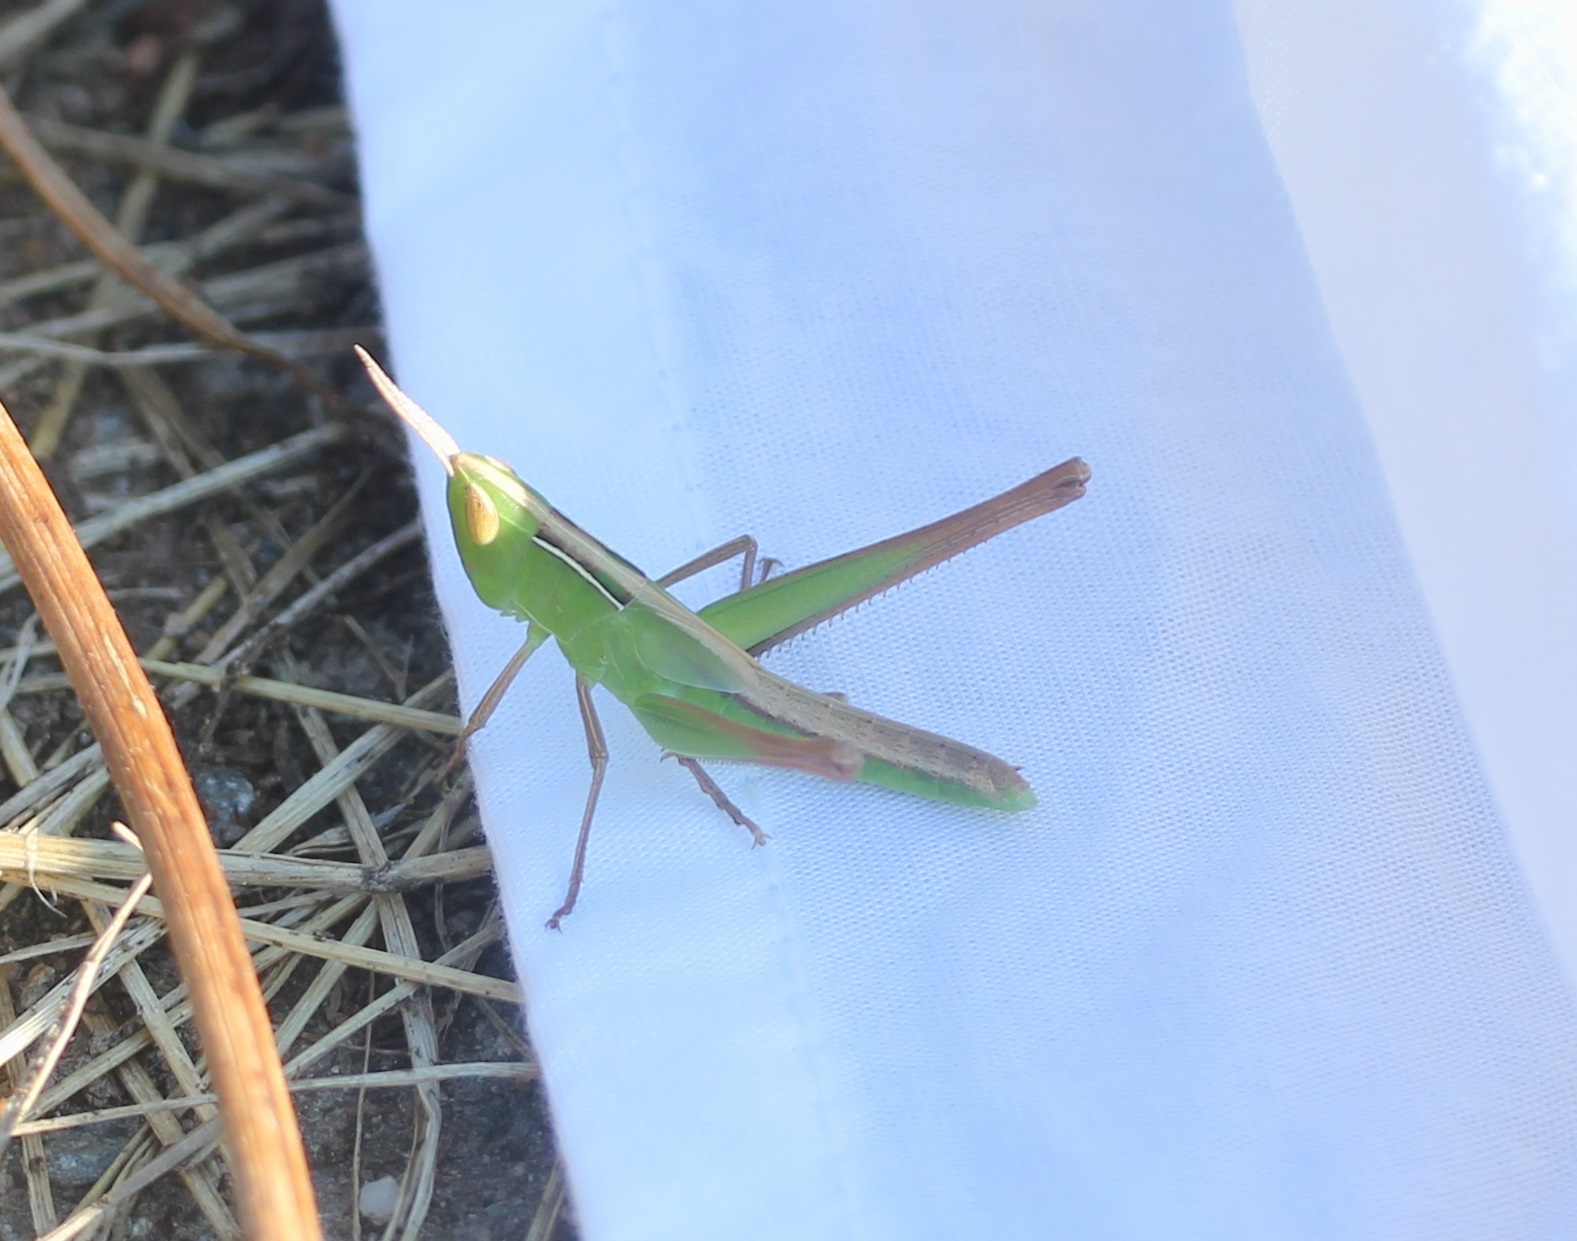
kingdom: Animalia
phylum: Arthropoda
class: Insecta
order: Orthoptera
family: Acrididae
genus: Syrbula
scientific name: Syrbula admirabilis
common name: Handsome grasshopper
